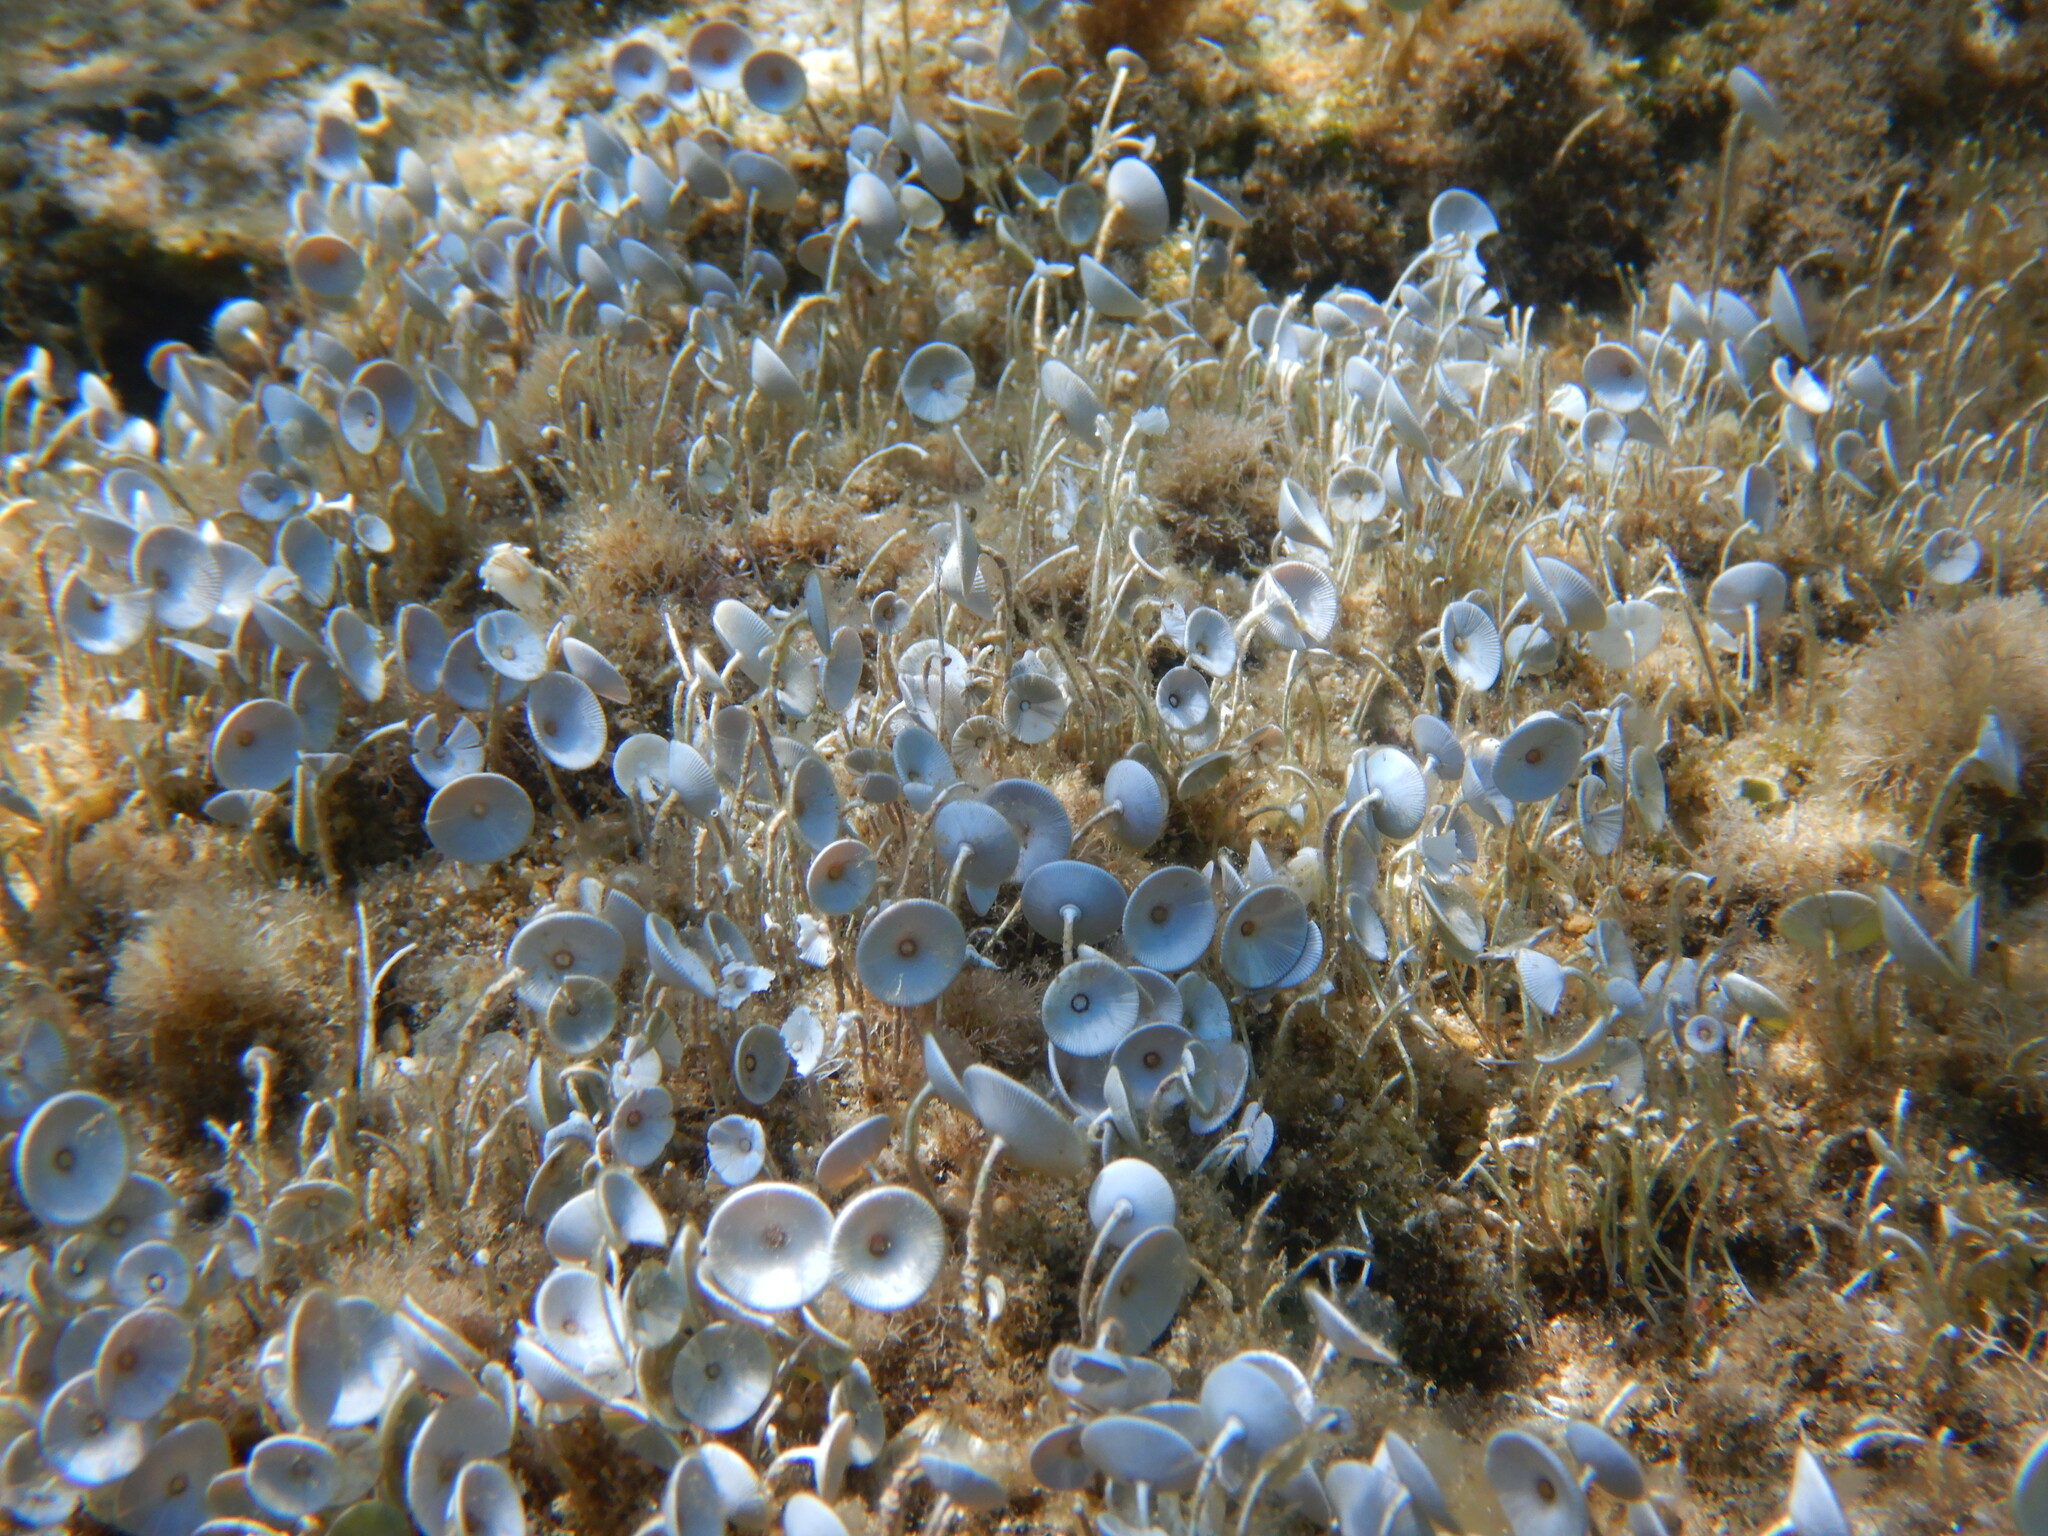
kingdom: Plantae
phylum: Chlorophyta
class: Ulvophyceae
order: Dasycladales
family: Polyphysaceae
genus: Acetabularia
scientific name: Acetabularia acetabulum
